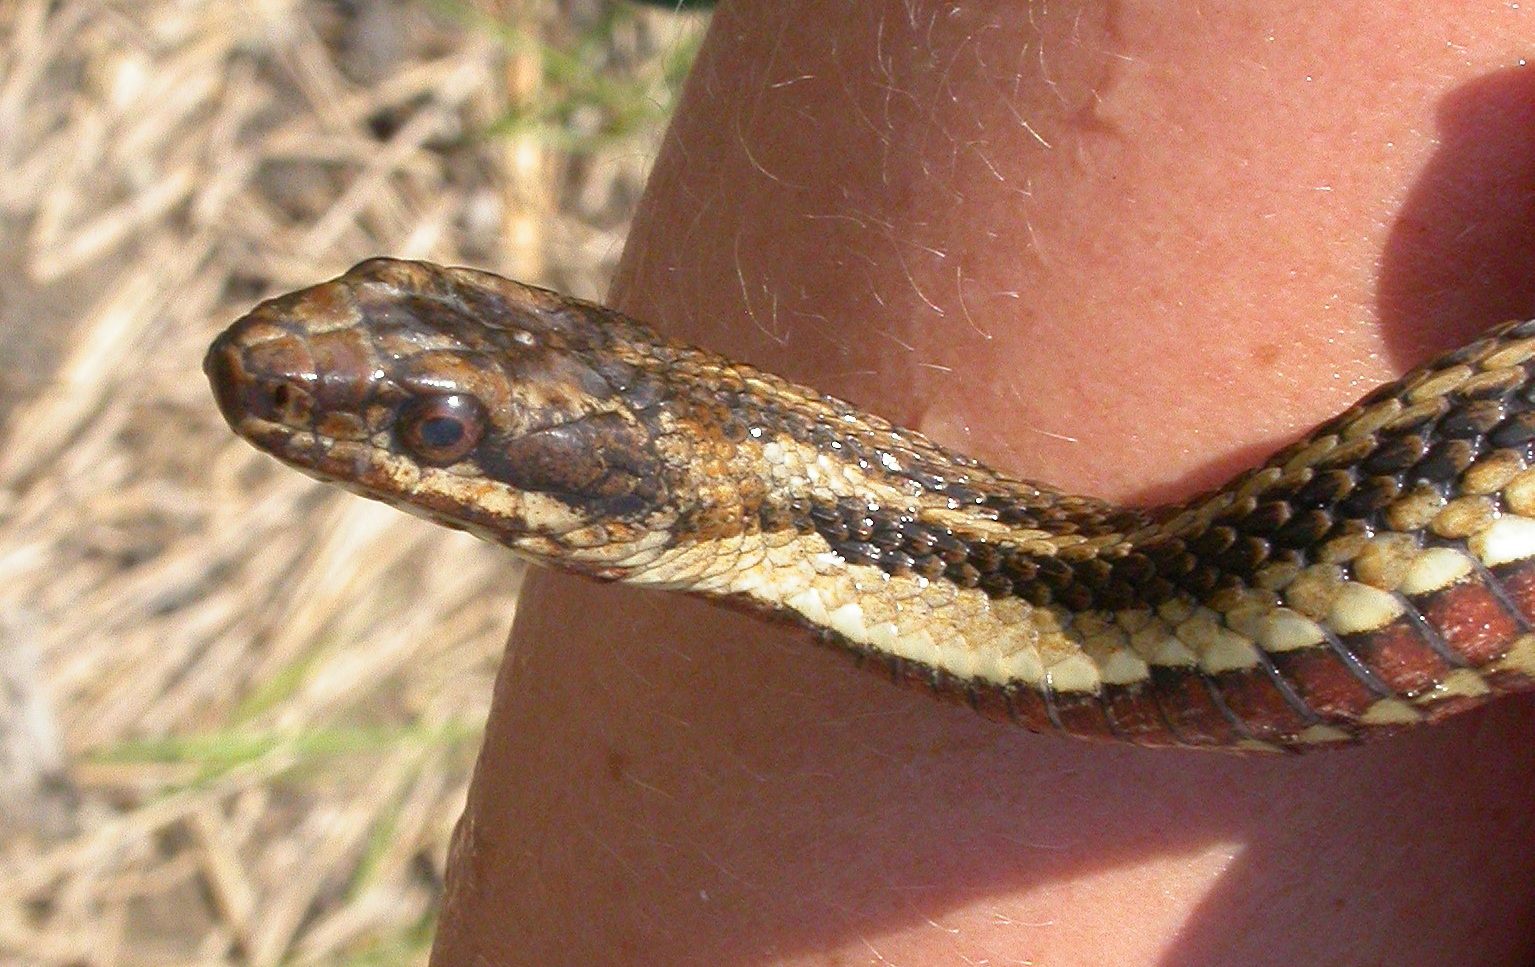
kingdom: Animalia
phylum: Chordata
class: Squamata
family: Colubridae
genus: Nerodia
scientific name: Nerodia clarkii
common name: Atlantic saltmarsh snake
